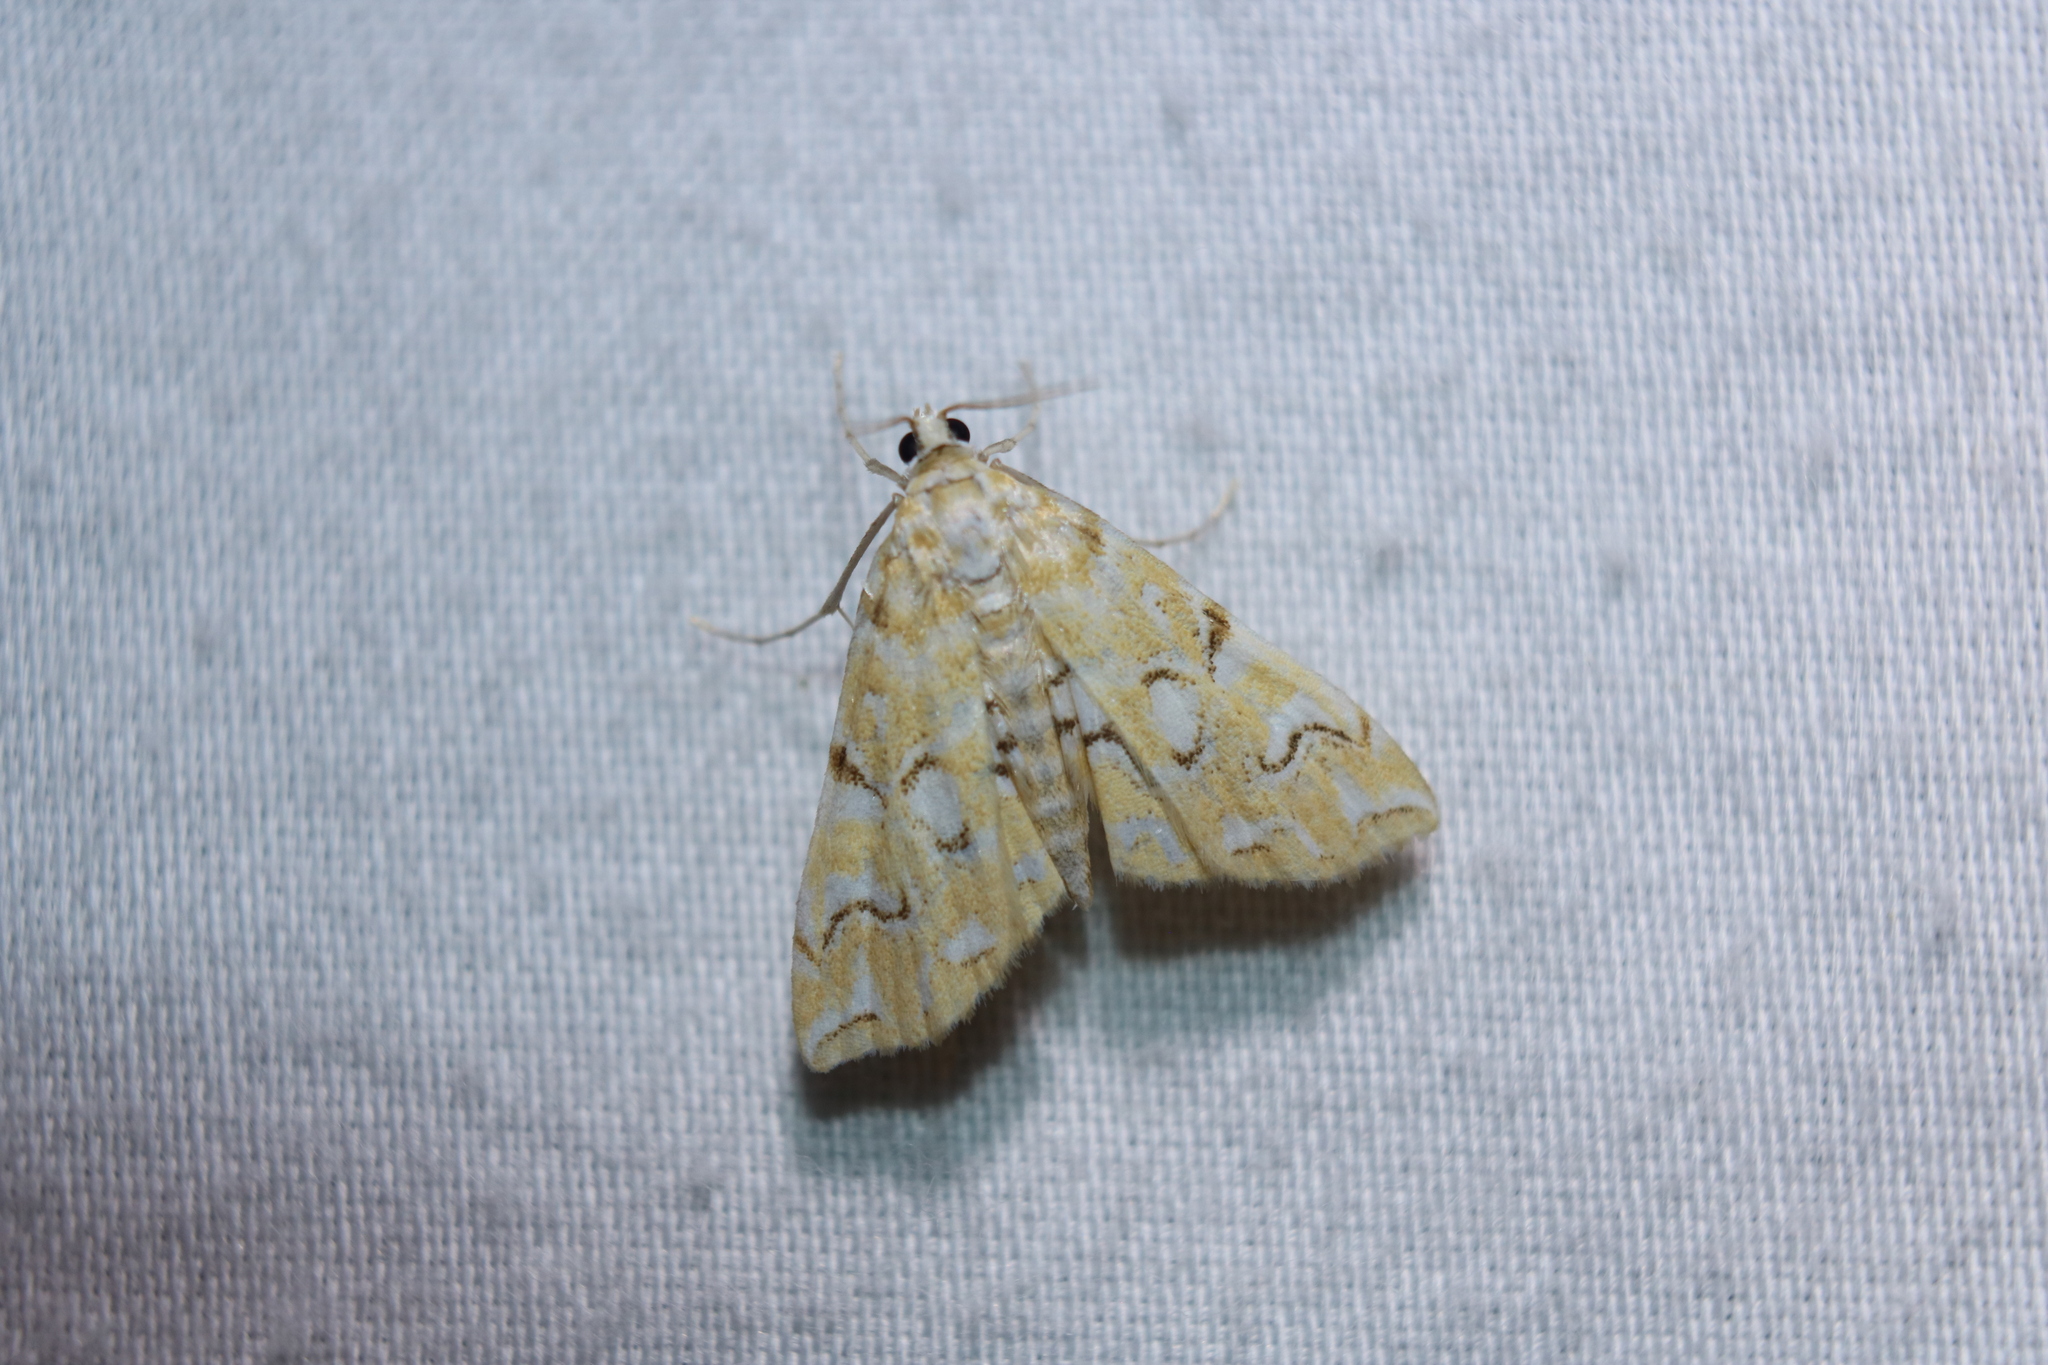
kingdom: Animalia
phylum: Arthropoda
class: Insecta
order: Lepidoptera
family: Crambidae
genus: Elophila
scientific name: Elophila icciusalis
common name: Pondside pyralid moth
